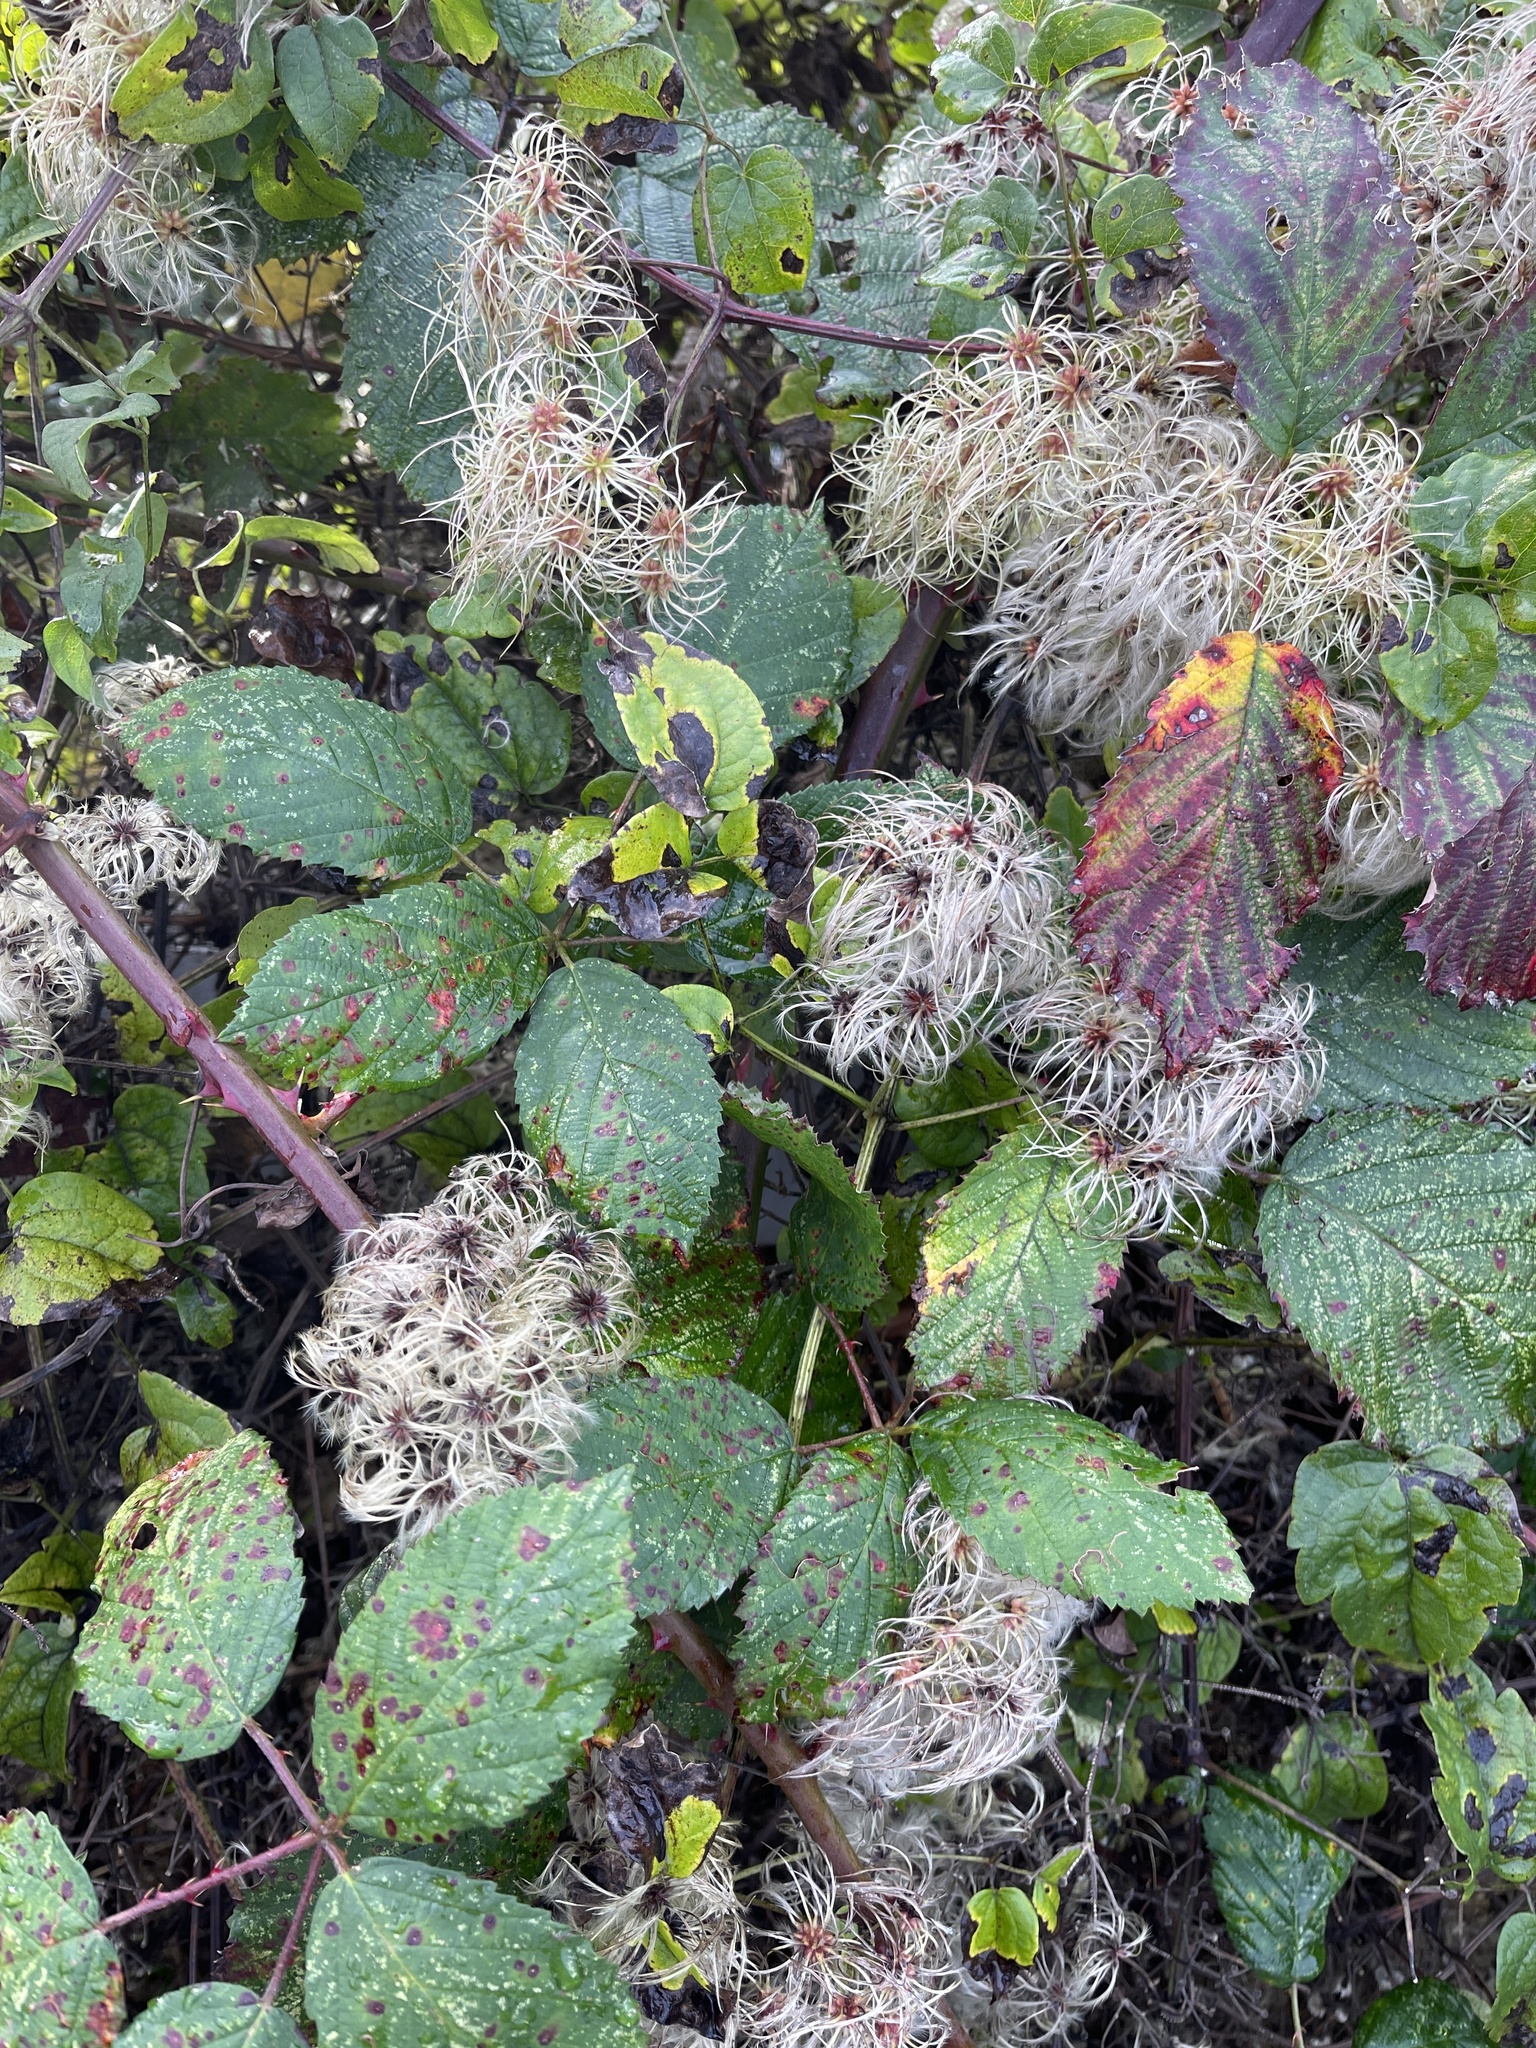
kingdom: Plantae
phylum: Tracheophyta
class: Magnoliopsida
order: Ranunculales
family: Ranunculaceae
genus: Clematis
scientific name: Clematis vitalba
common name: Evergreen clematis
